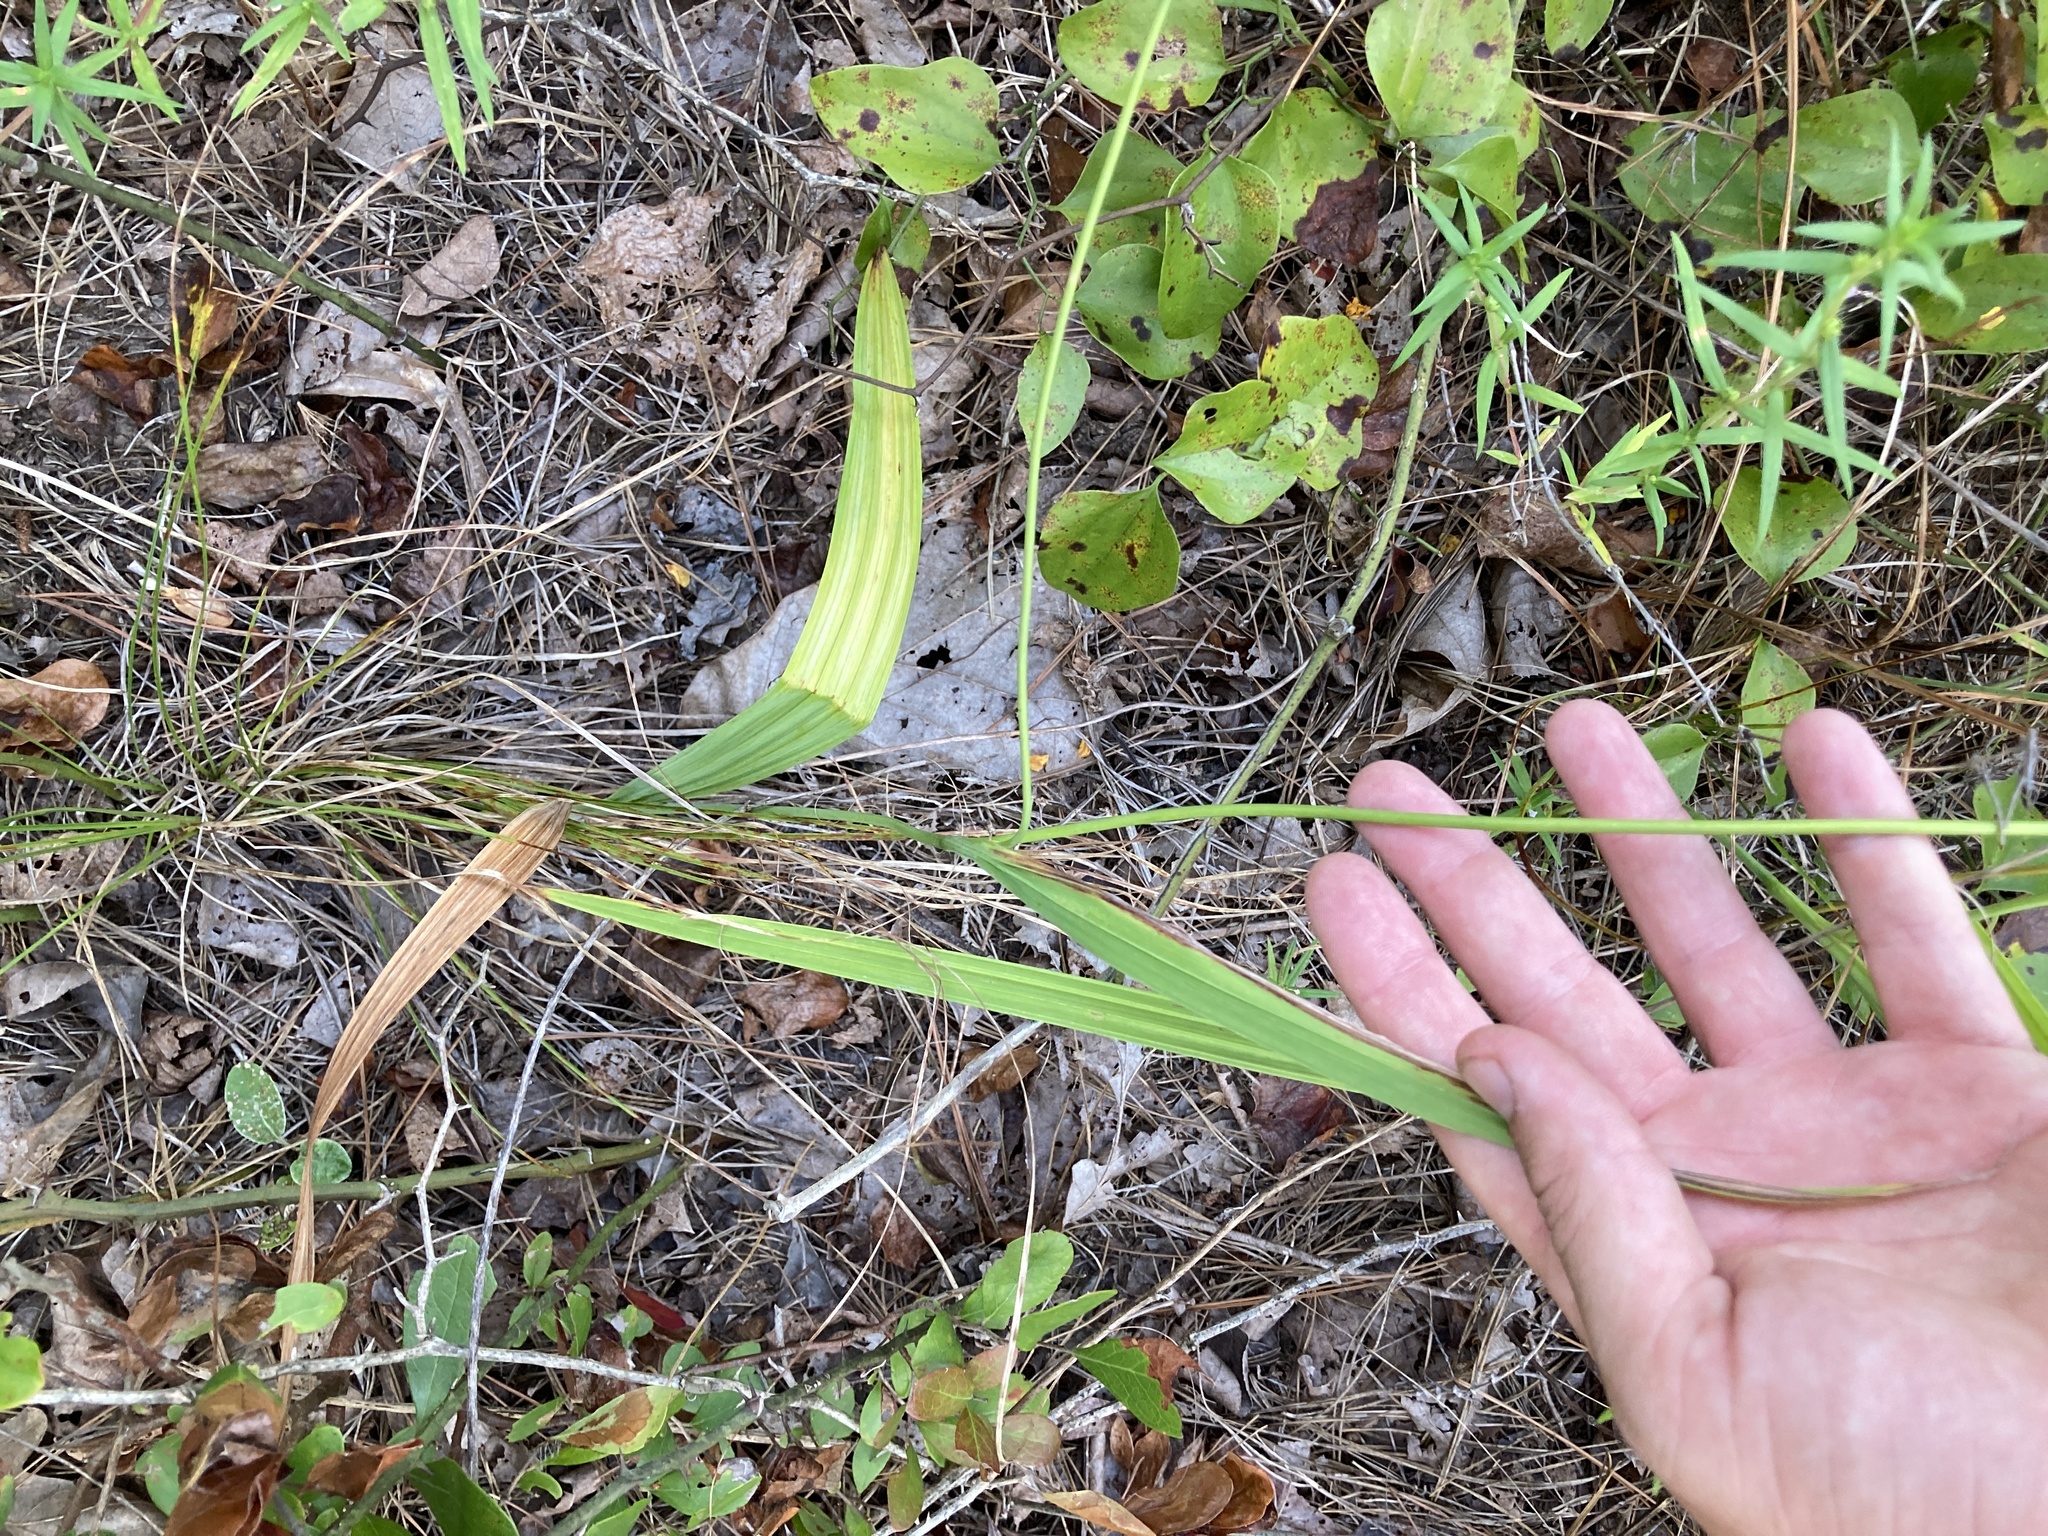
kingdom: Plantae
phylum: Tracheophyta
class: Liliopsida
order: Asparagales
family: Iridaceae
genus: Alophia
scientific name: Alophia drummondii
